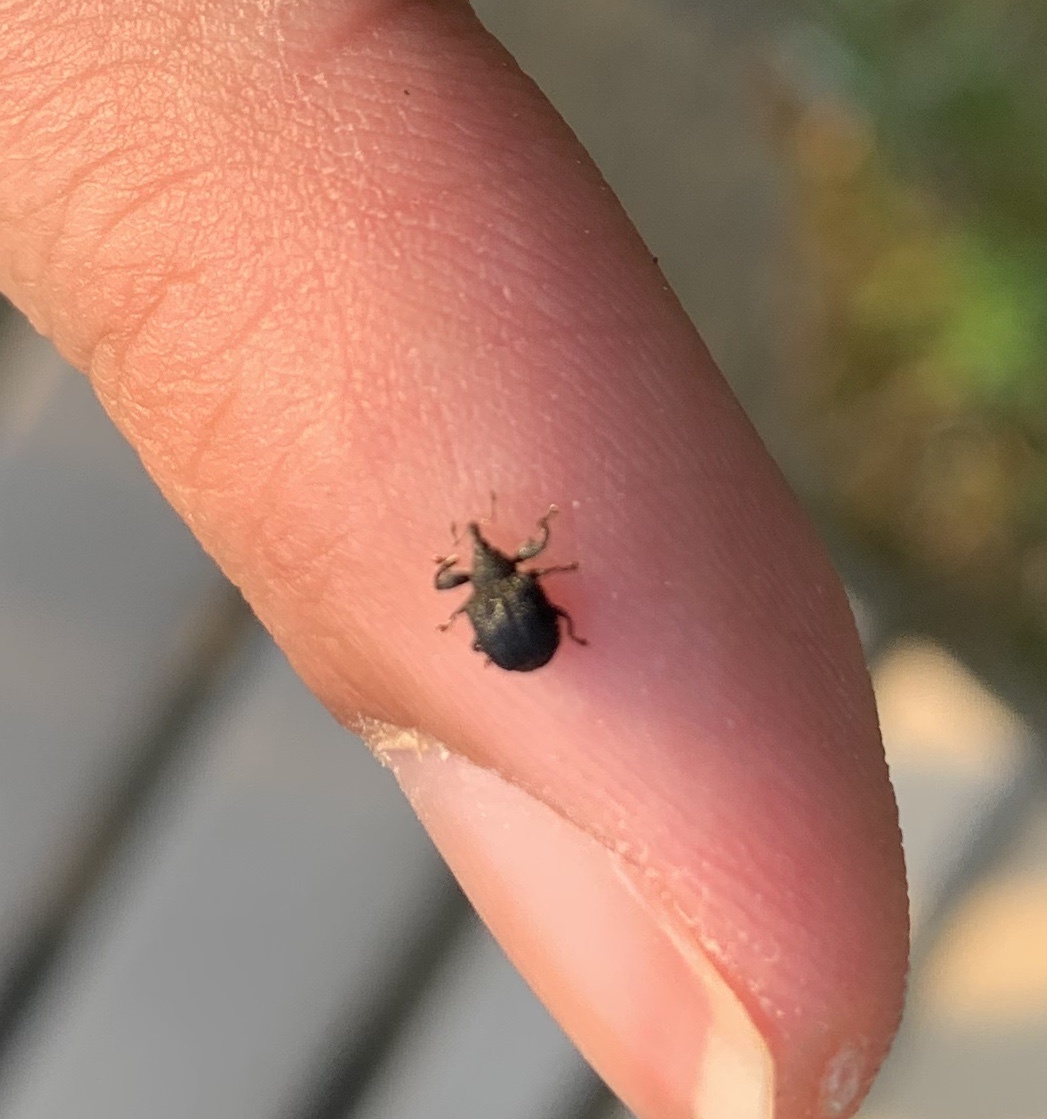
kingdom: Animalia
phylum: Arthropoda
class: Insecta
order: Coleoptera
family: Curculionidae
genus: Odontopus
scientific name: Odontopus calceatus
